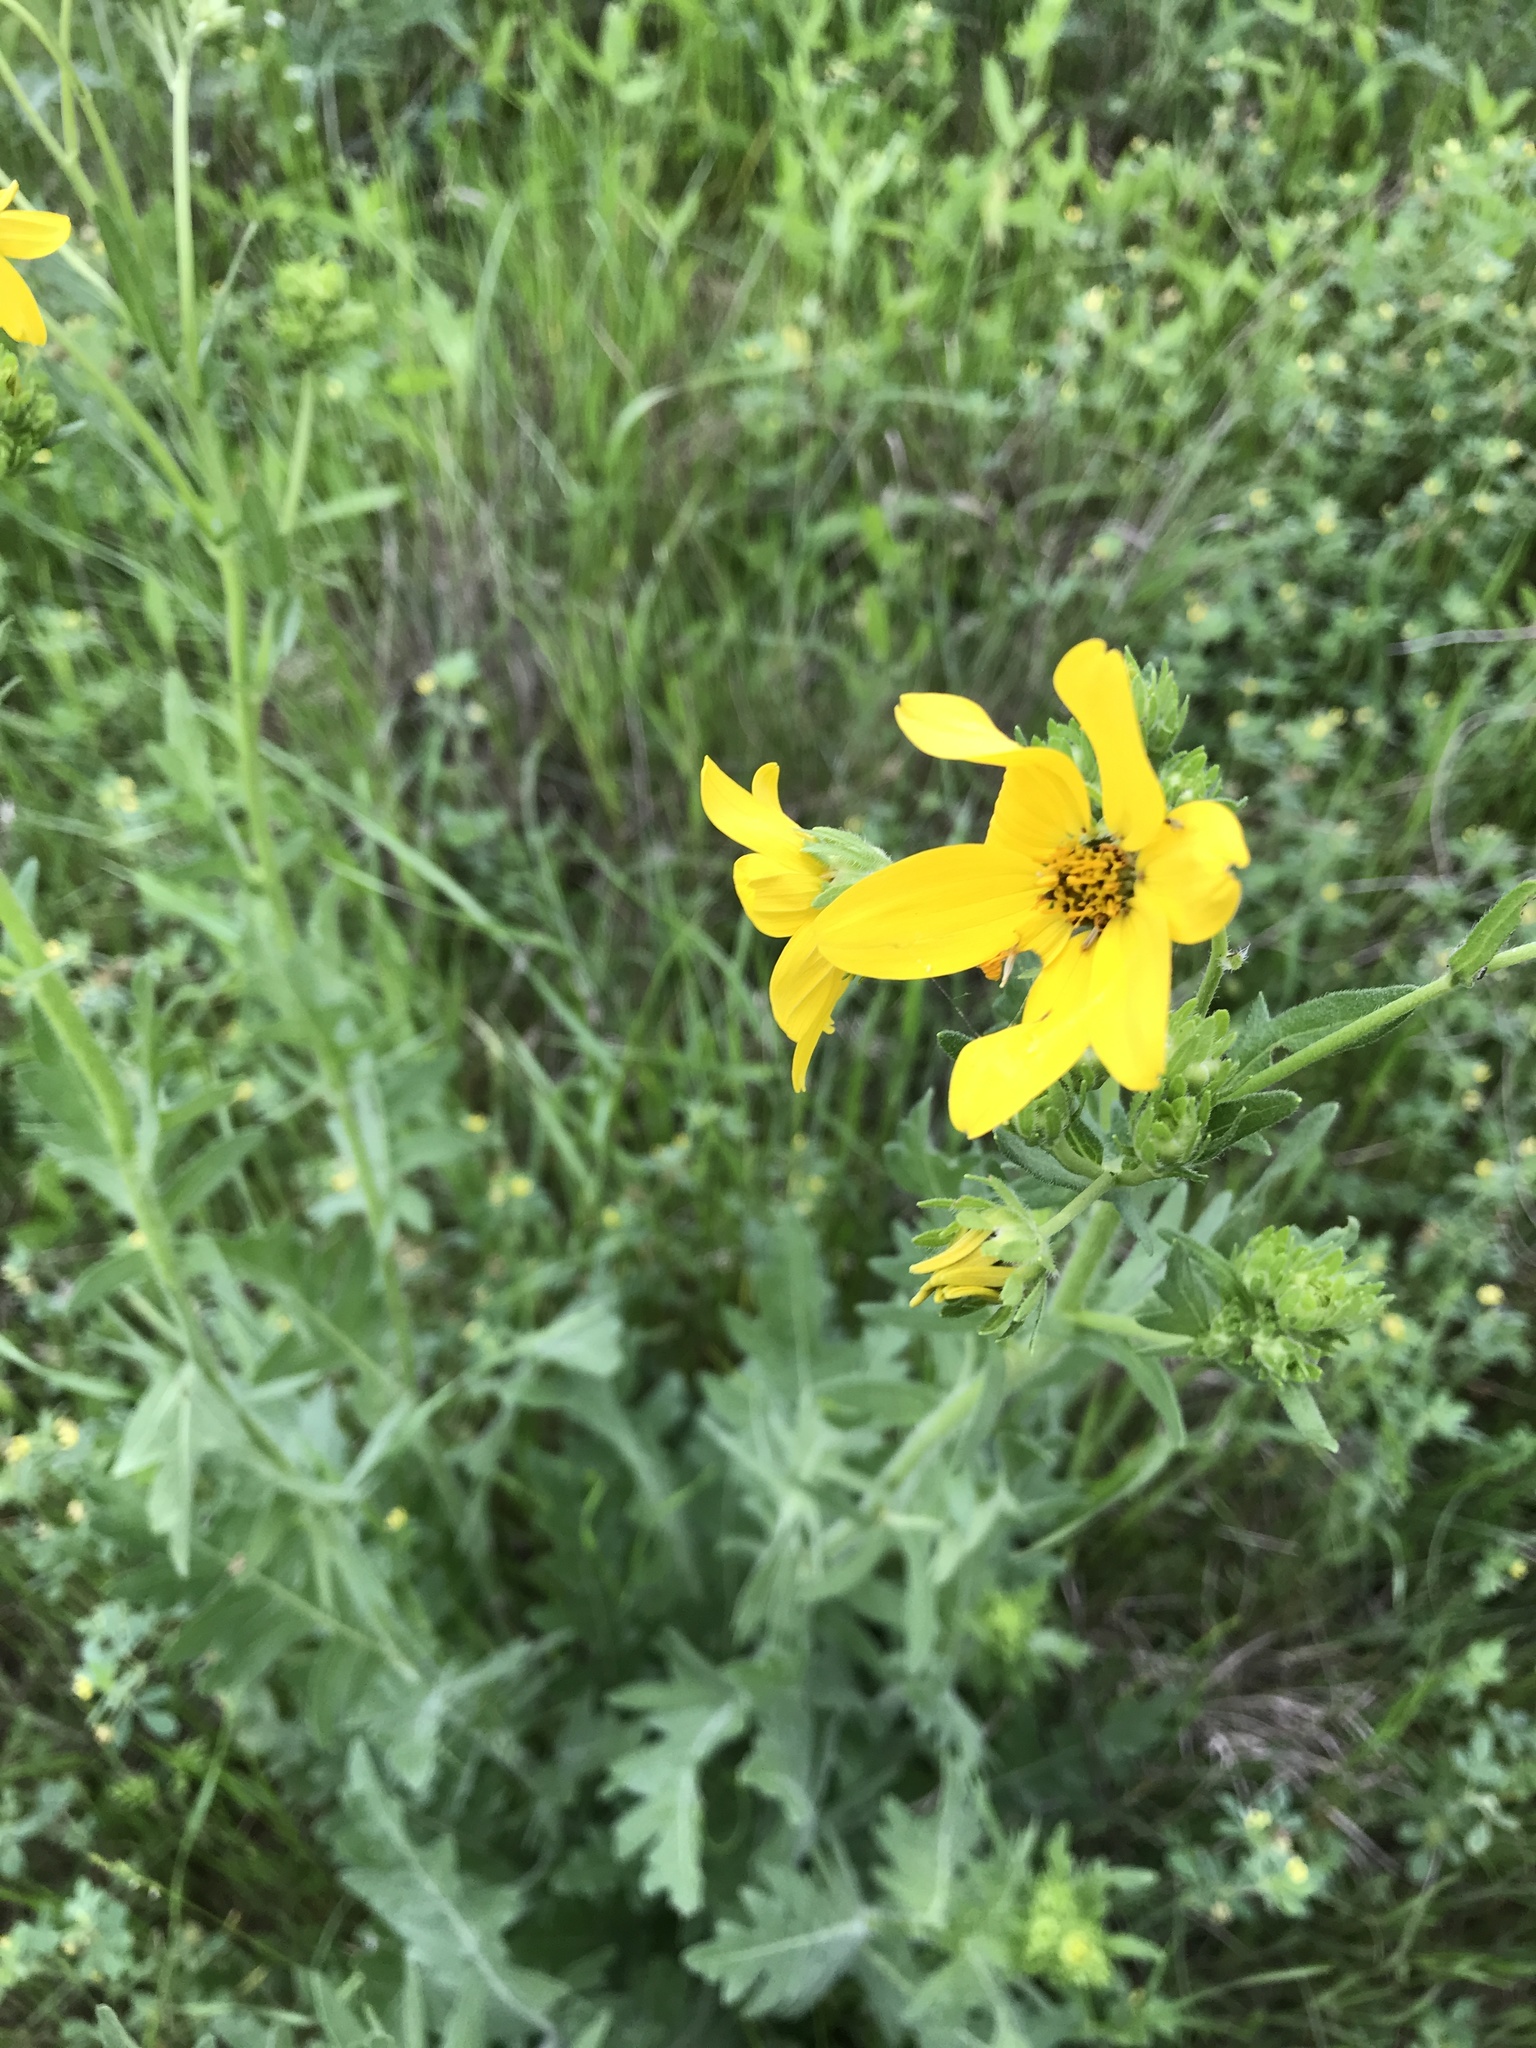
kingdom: Plantae
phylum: Tracheophyta
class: Magnoliopsida
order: Asterales
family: Asteraceae
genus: Engelmannia
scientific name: Engelmannia peristenia
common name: Engelmann's daisy
